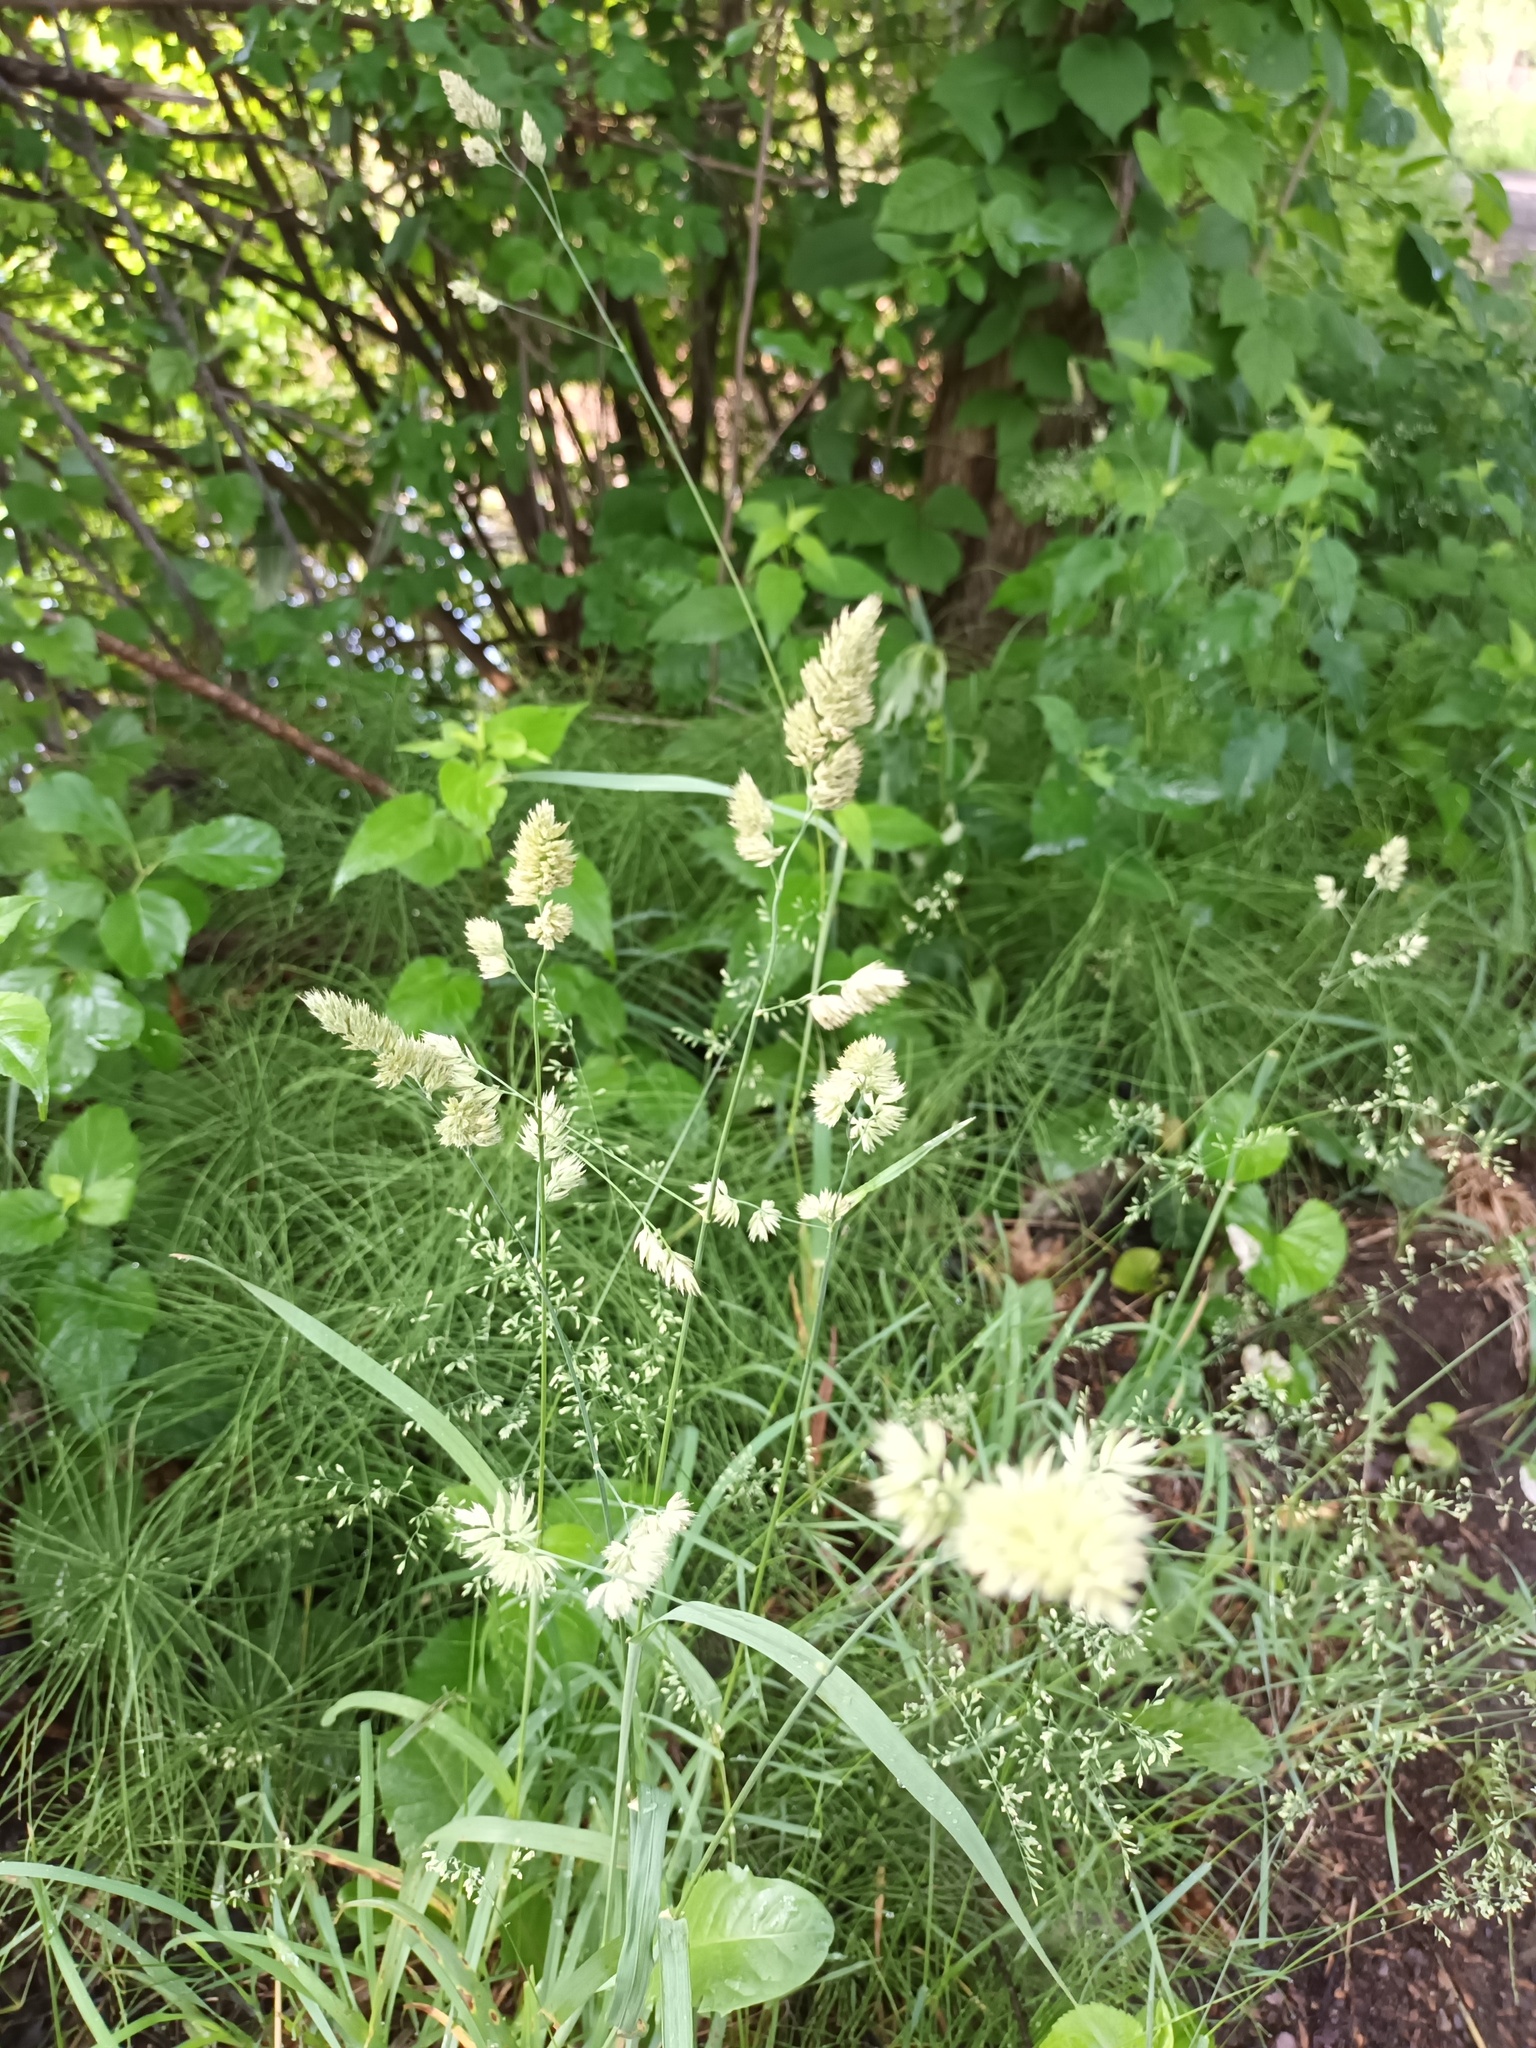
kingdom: Plantae
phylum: Tracheophyta
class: Liliopsida
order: Poales
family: Poaceae
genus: Dactylis
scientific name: Dactylis glomerata
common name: Orchardgrass
